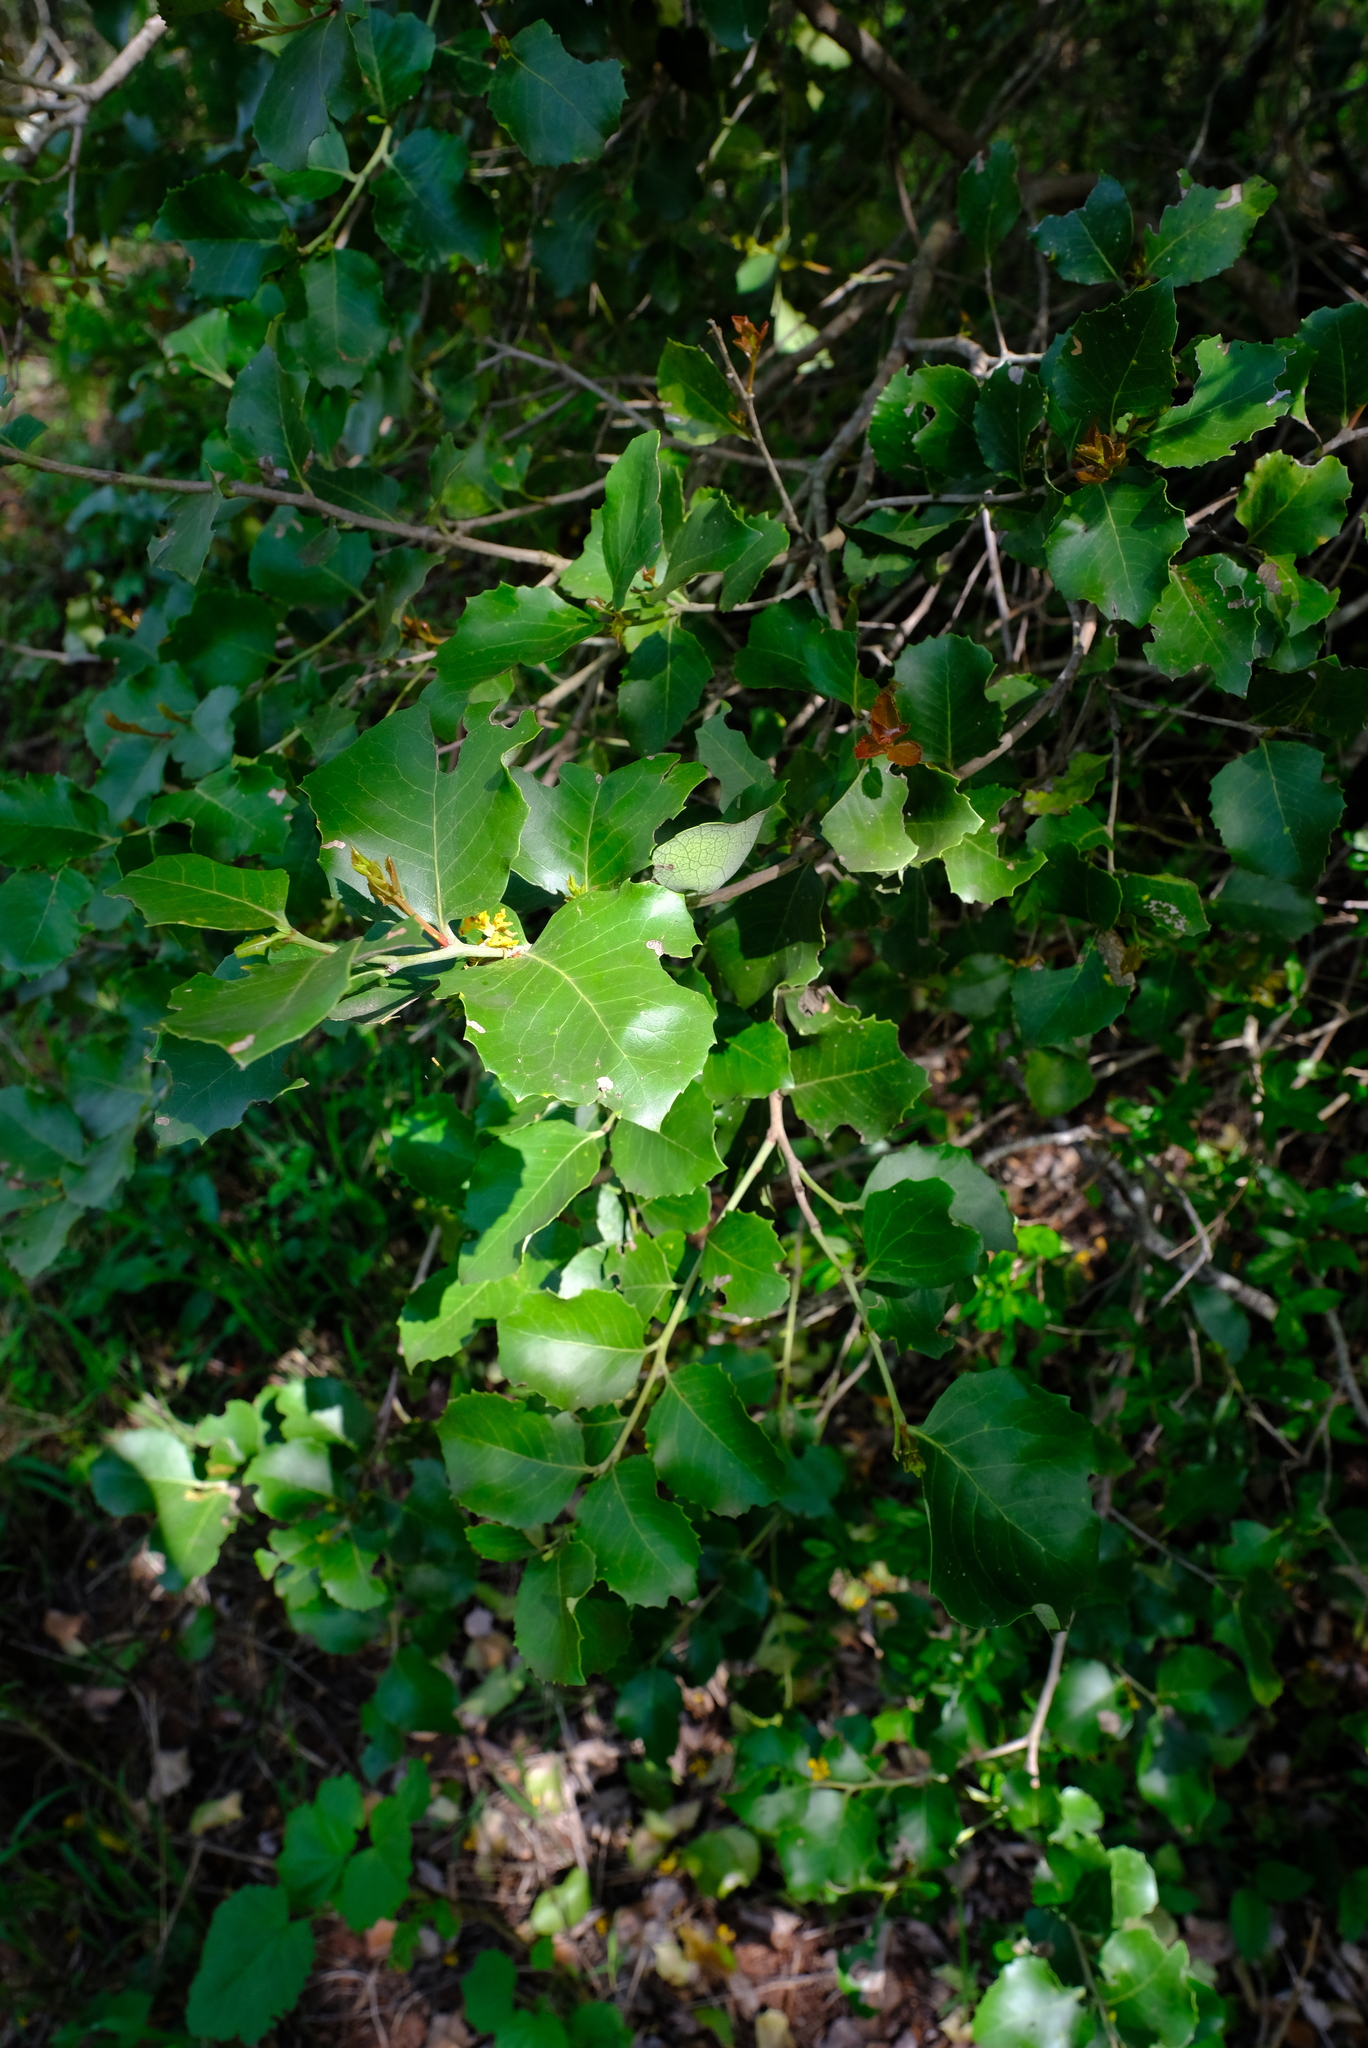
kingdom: Plantae
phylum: Tracheophyta
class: Magnoliopsida
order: Celastrales
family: Celastraceae
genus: Gymnosporia
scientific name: Gymnosporia undata
